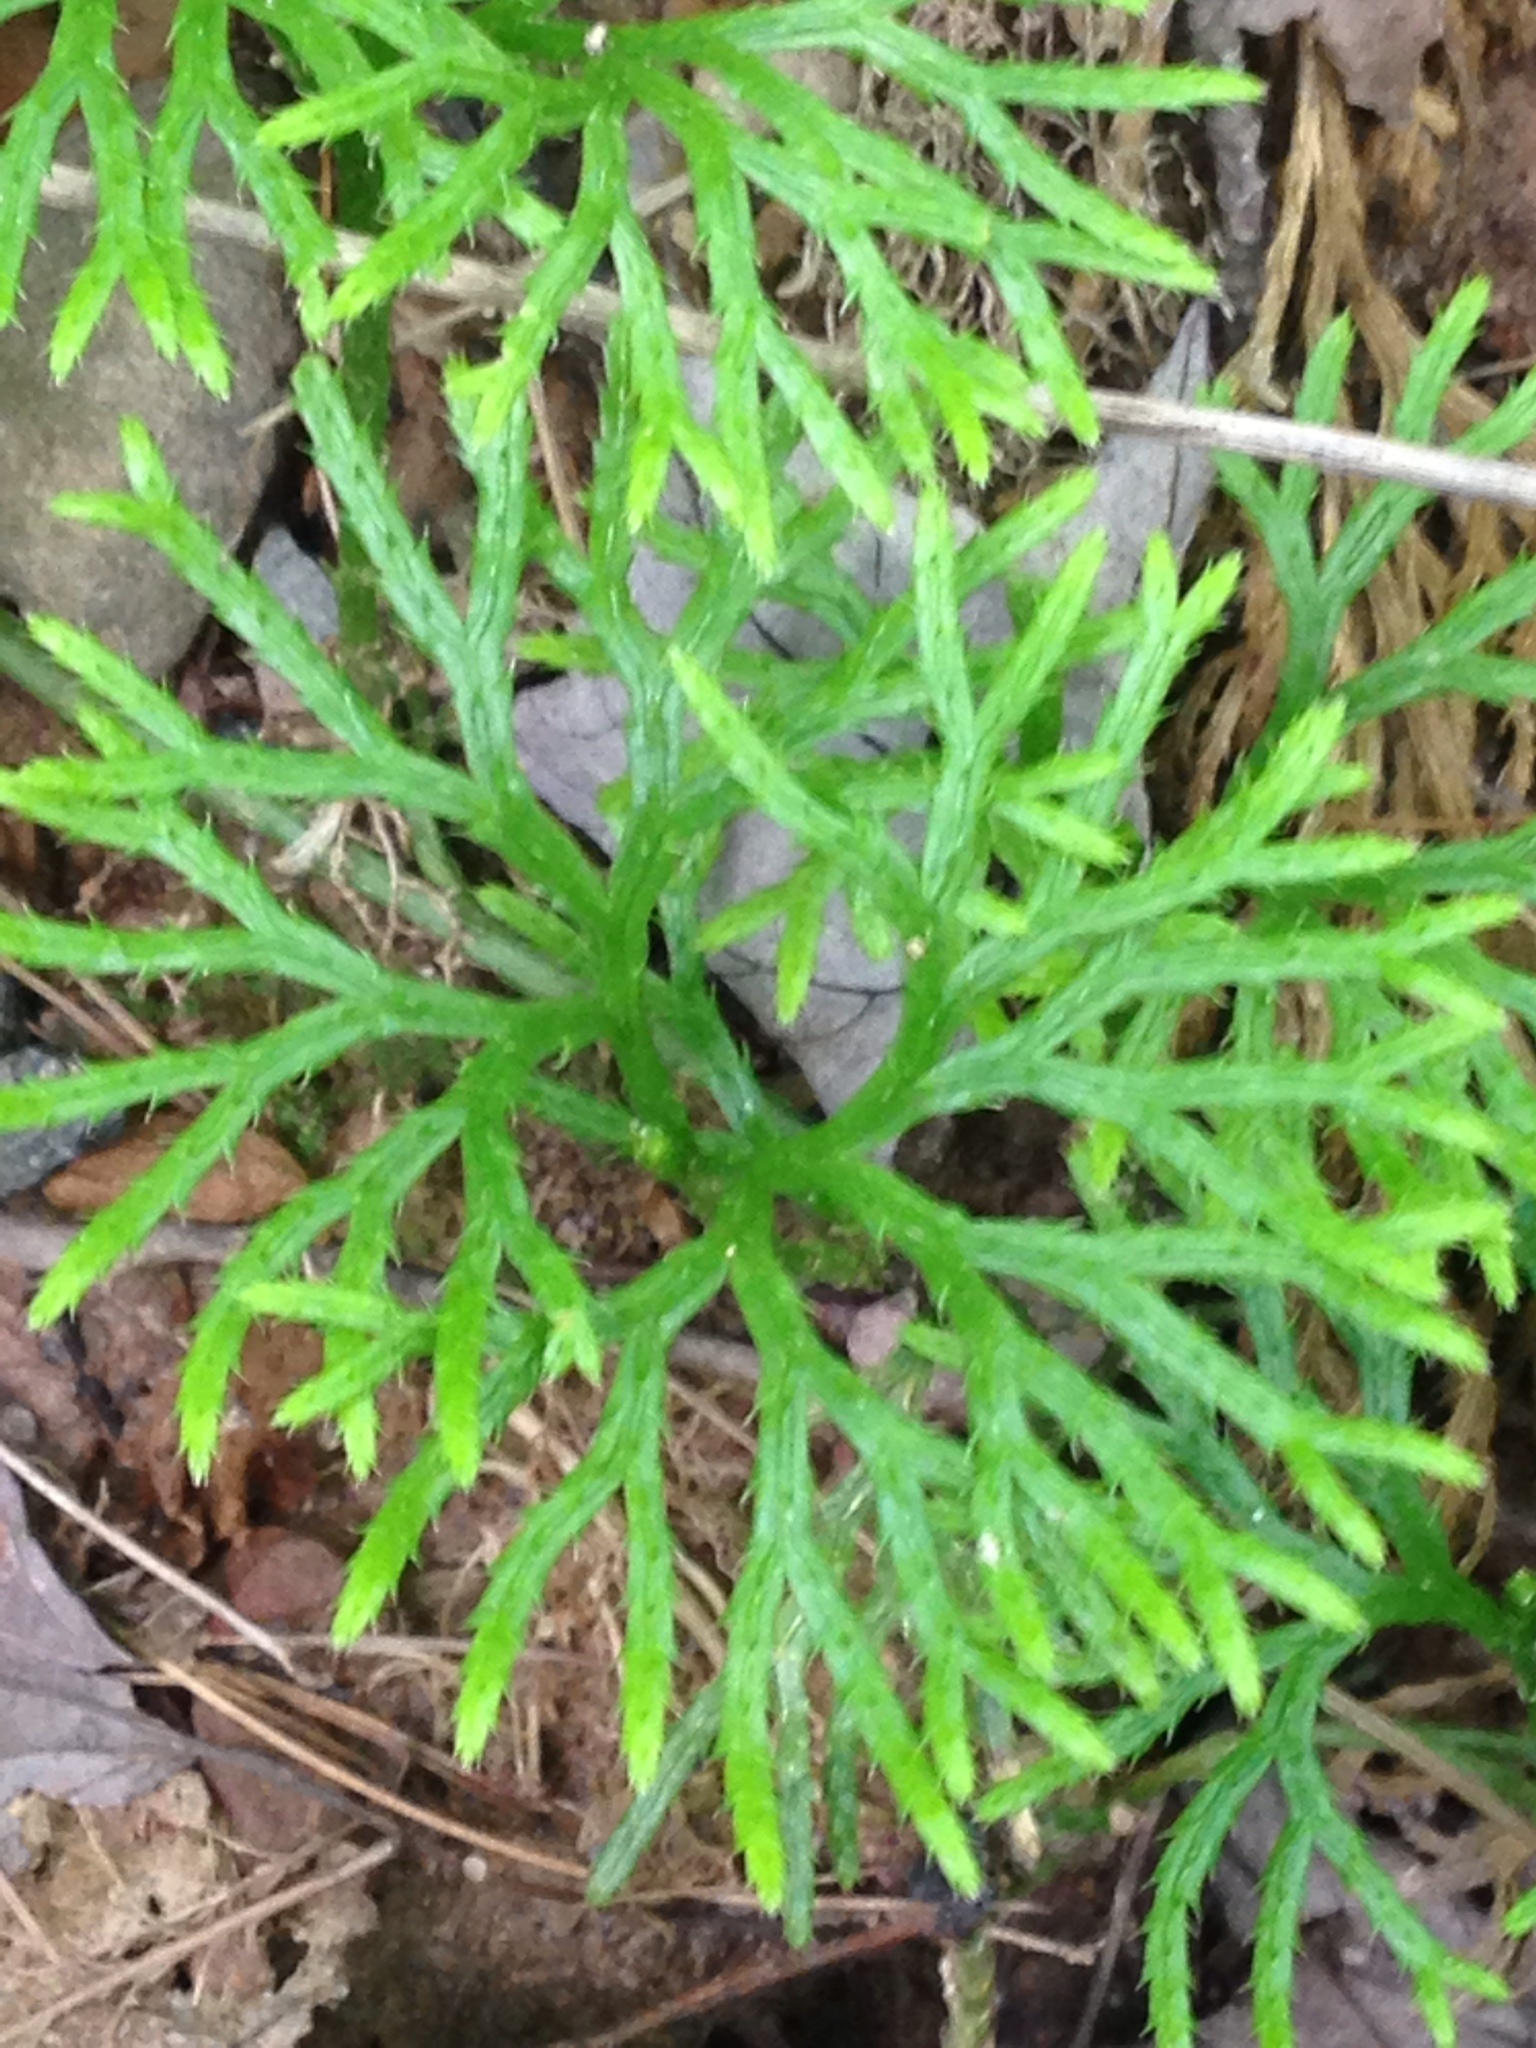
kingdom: Plantae
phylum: Tracheophyta
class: Lycopodiopsida
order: Lycopodiales
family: Lycopodiaceae
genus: Diphasiastrum
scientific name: Diphasiastrum digitatum
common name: Southern running-pine
